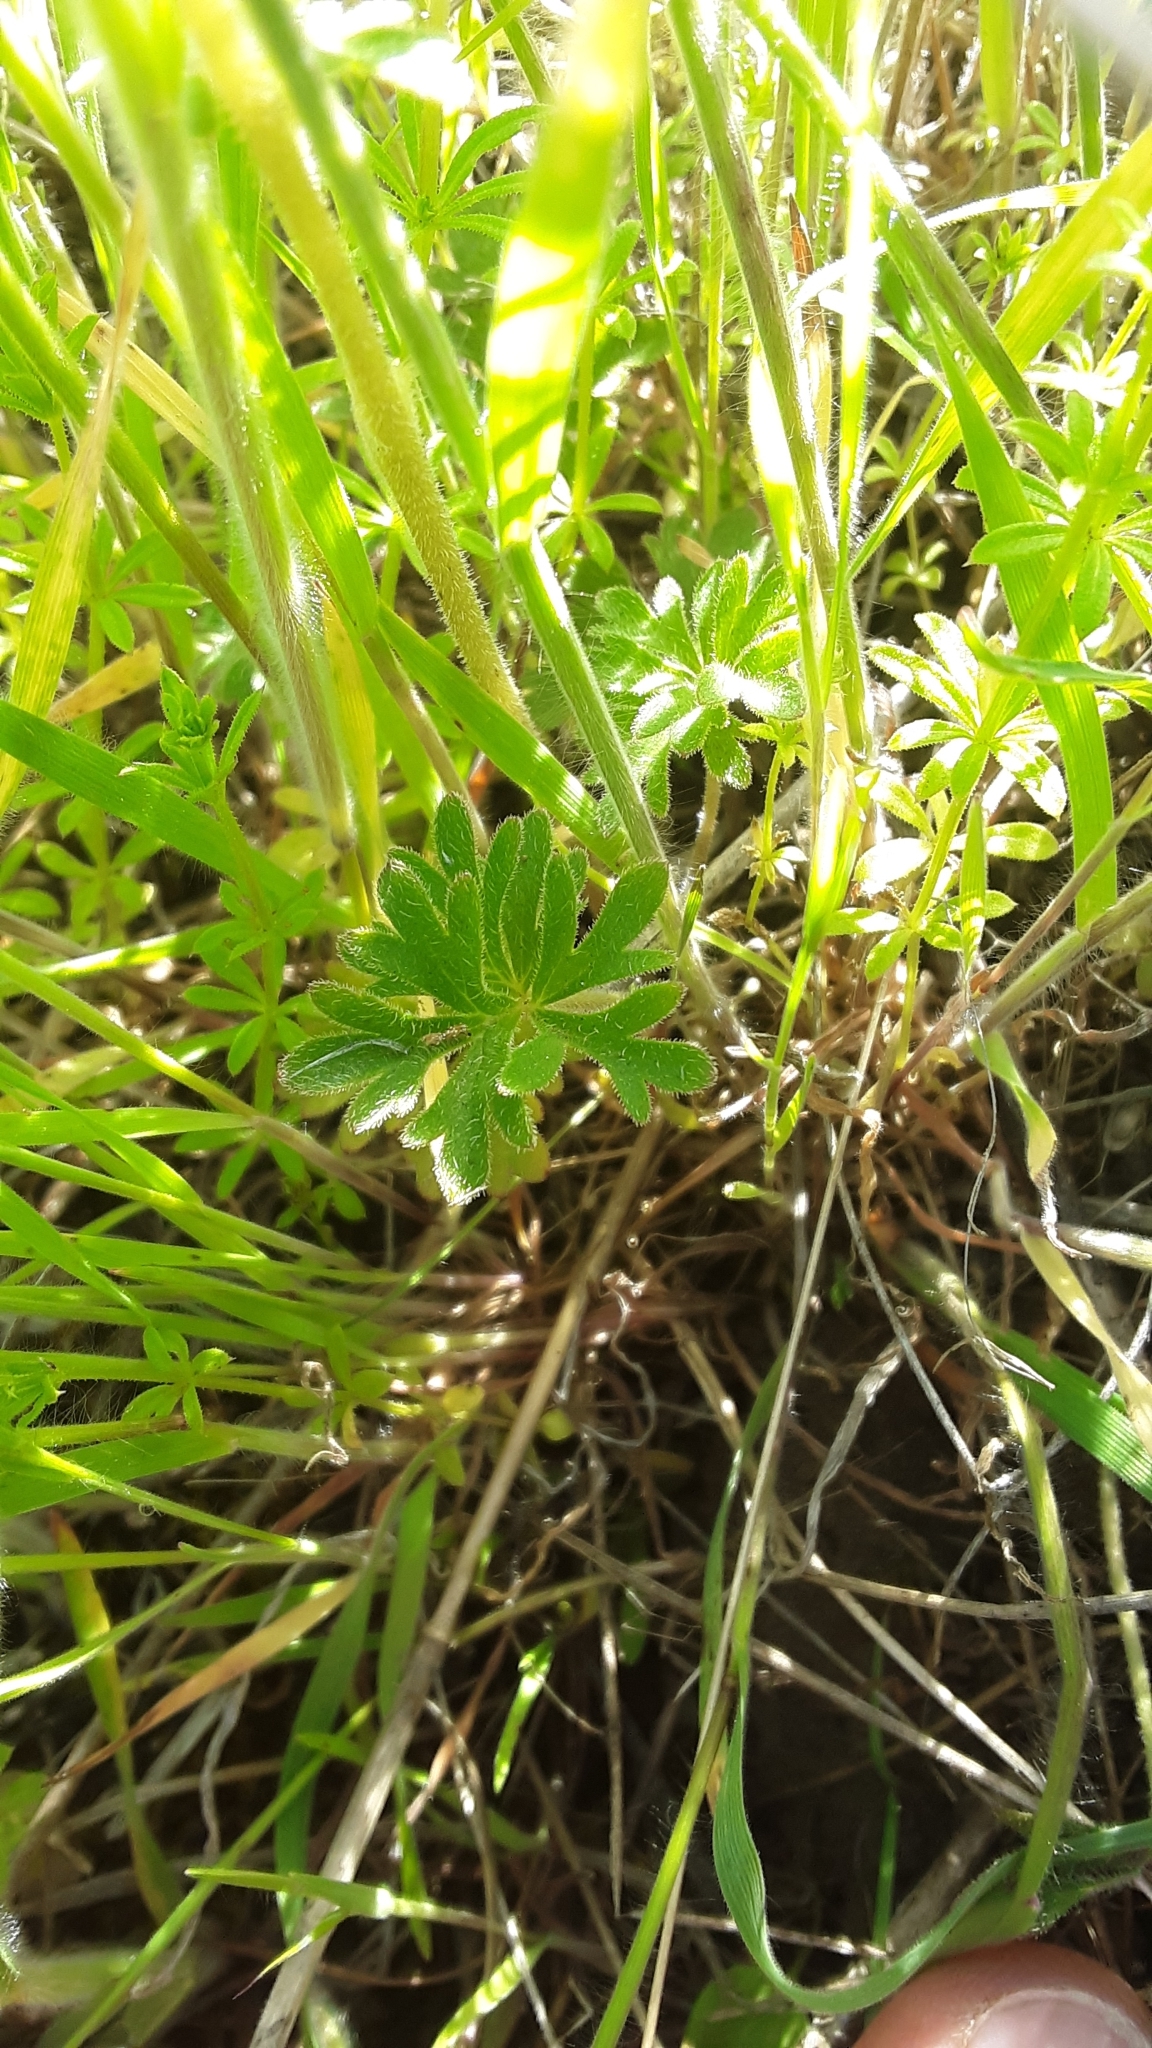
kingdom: Plantae
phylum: Tracheophyta
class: Magnoliopsida
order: Saxifragales
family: Saxifragaceae
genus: Lithophragma
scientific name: Lithophragma parviflorum
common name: Small-flowered fringe-cup
